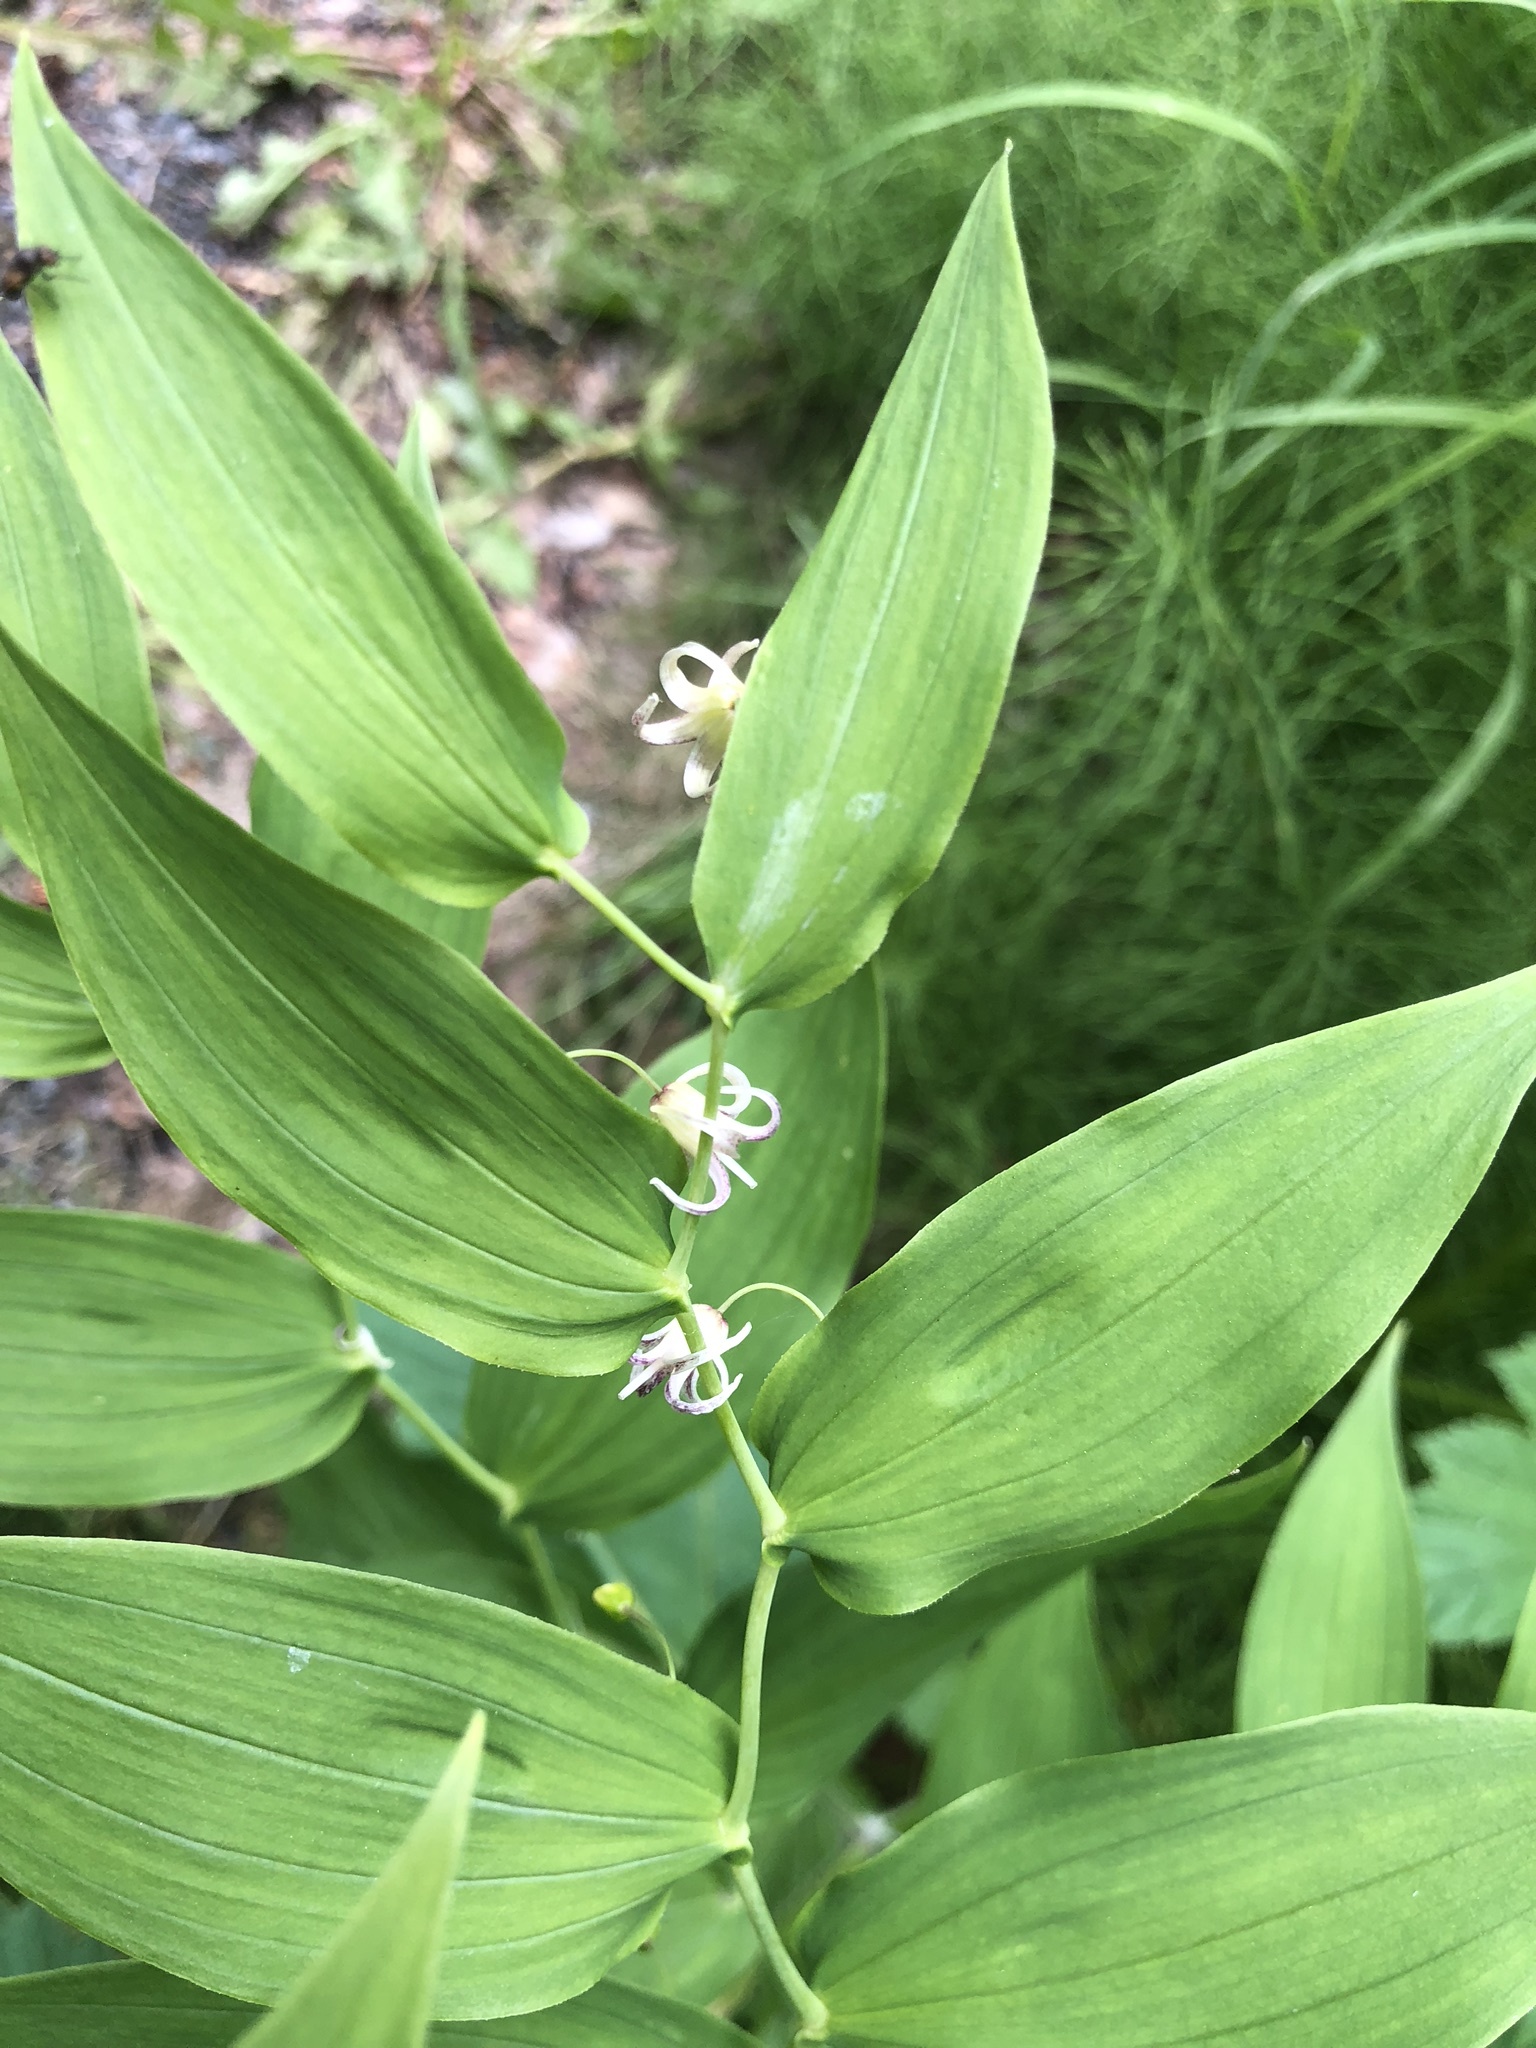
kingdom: Plantae
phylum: Tracheophyta
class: Liliopsida
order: Liliales
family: Liliaceae
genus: Streptopus
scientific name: Streptopus amplexifolius
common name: Clasp twisted stalk
